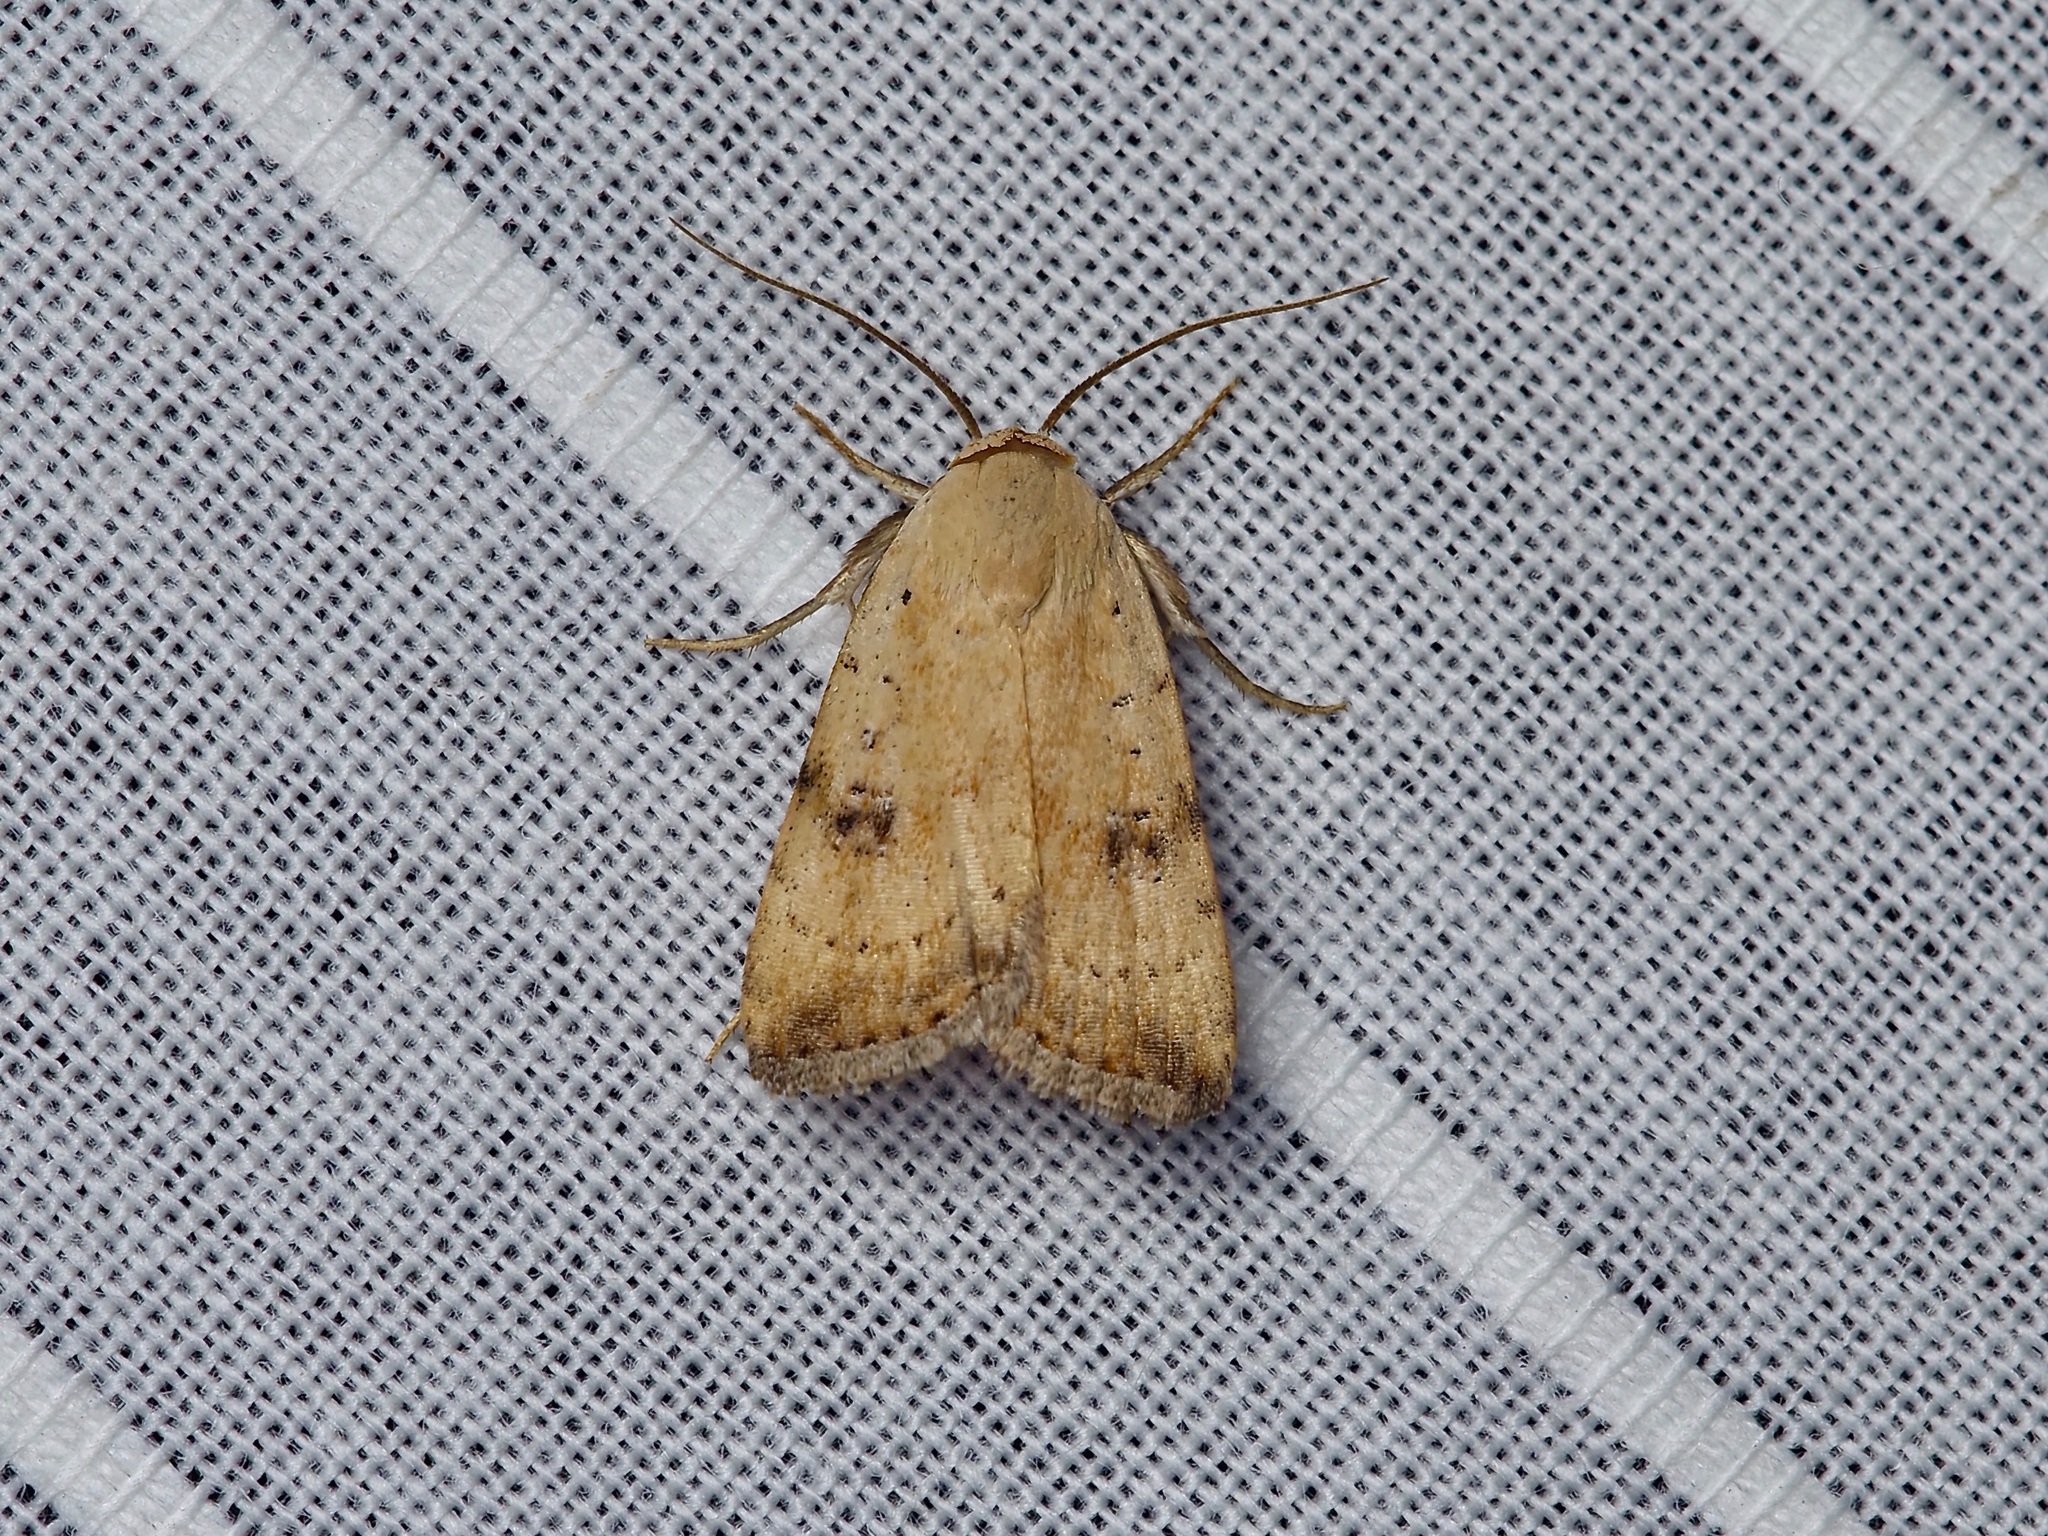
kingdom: Animalia
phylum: Arthropoda
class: Insecta
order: Lepidoptera
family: Noctuidae
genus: Micrathetis
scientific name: Micrathetis triplex
